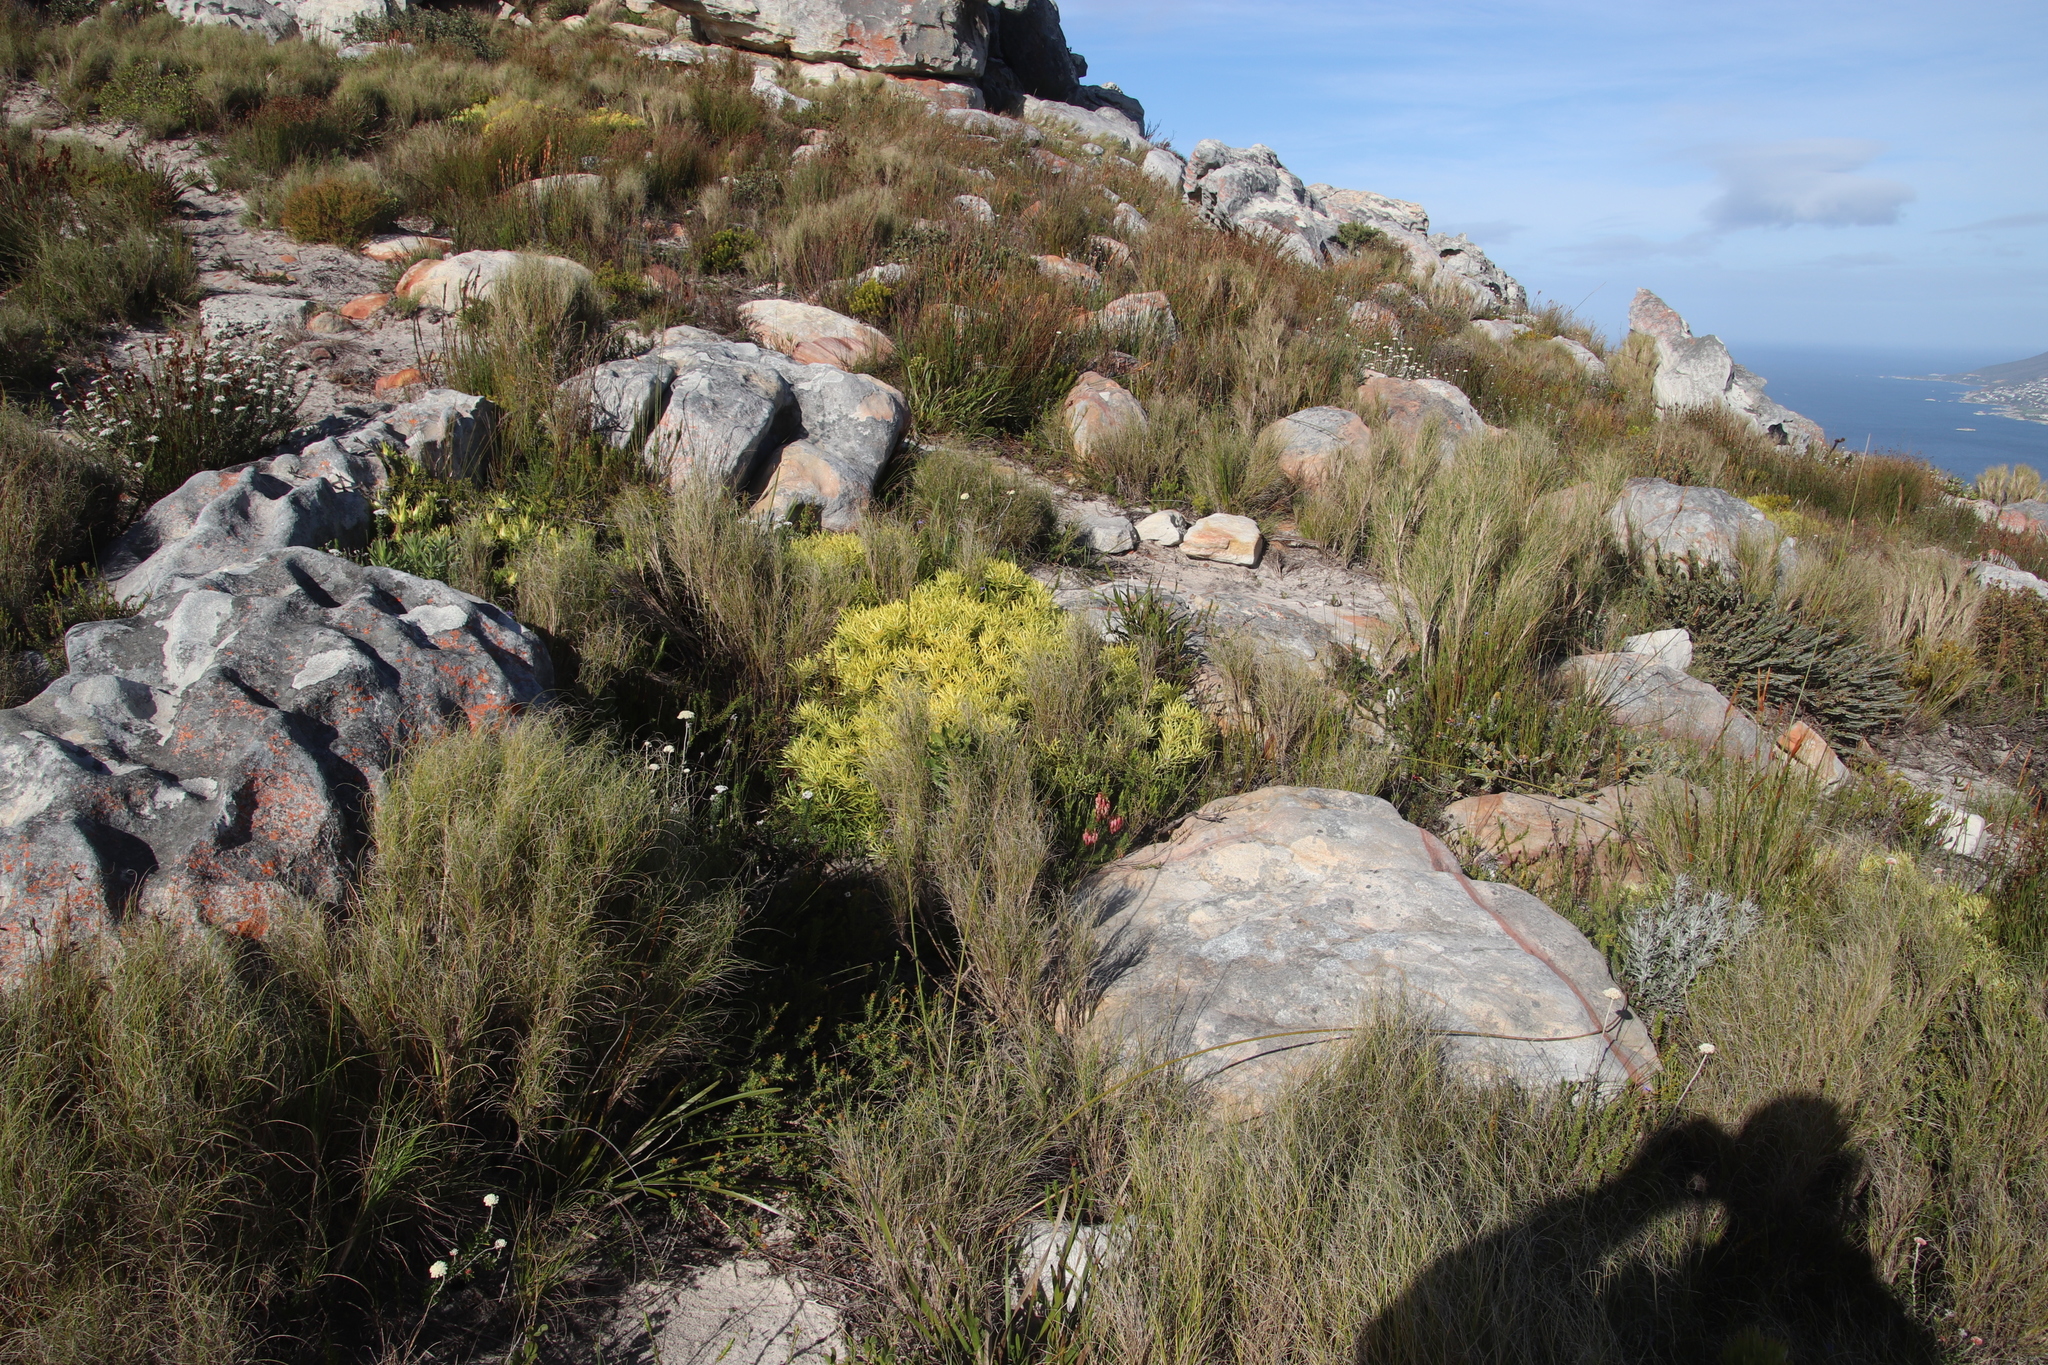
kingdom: Plantae
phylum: Tracheophyta
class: Magnoliopsida
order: Proteales
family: Proteaceae
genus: Leucadendron
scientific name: Leucadendron salignum
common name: Common sunshine conebush
